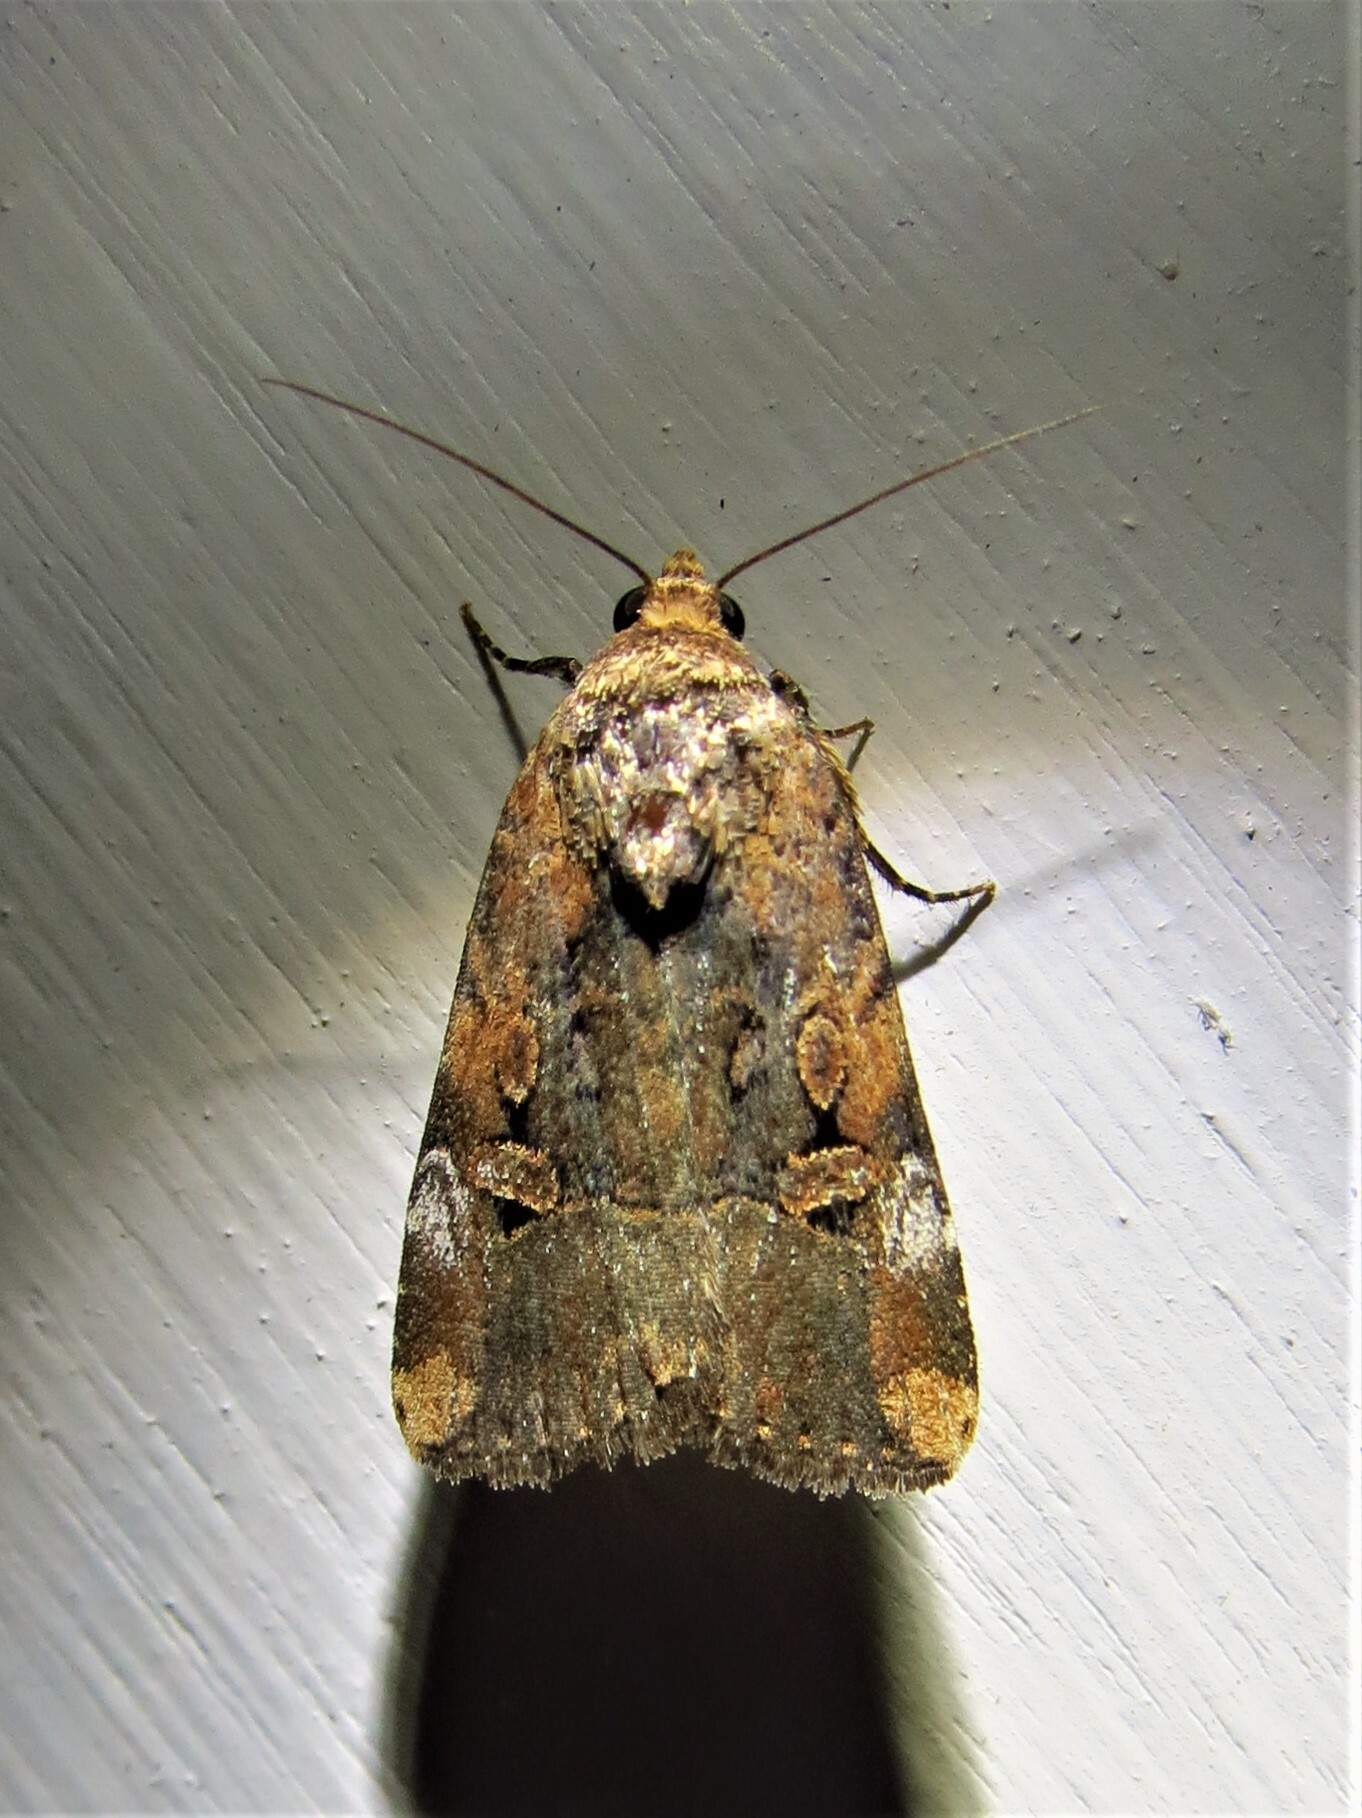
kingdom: Animalia
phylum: Arthropoda
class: Insecta
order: Lepidoptera
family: Noctuidae
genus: Elaphria
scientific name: Elaphria chalcedonia
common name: Chalcedony midget
